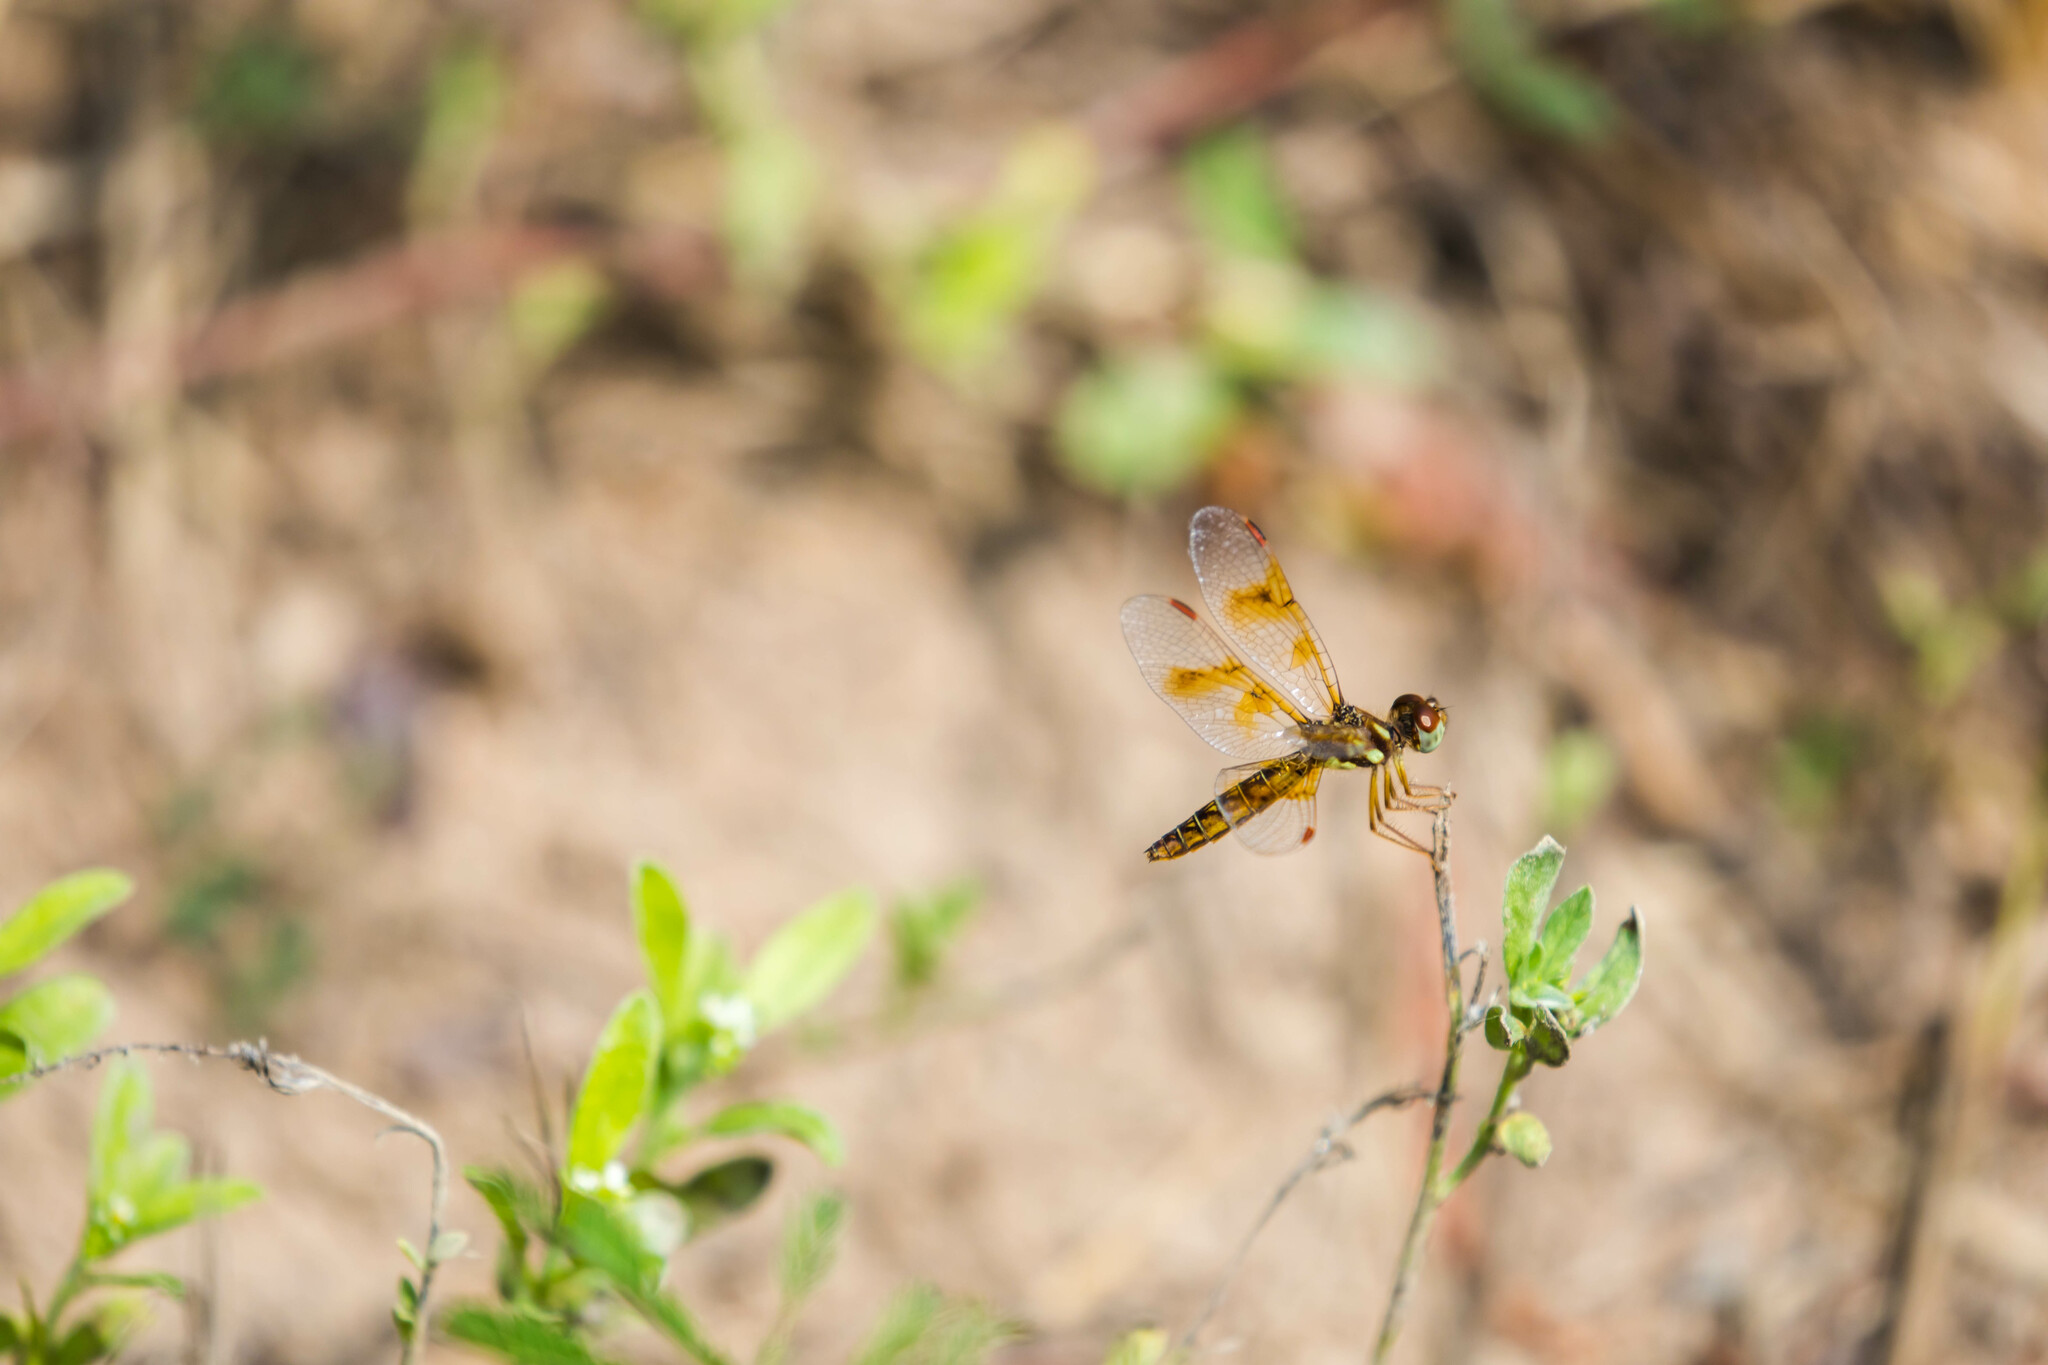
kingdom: Animalia
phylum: Arthropoda
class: Insecta
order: Odonata
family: Libellulidae
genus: Perithemis
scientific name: Perithemis tenera
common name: Eastern amberwing
